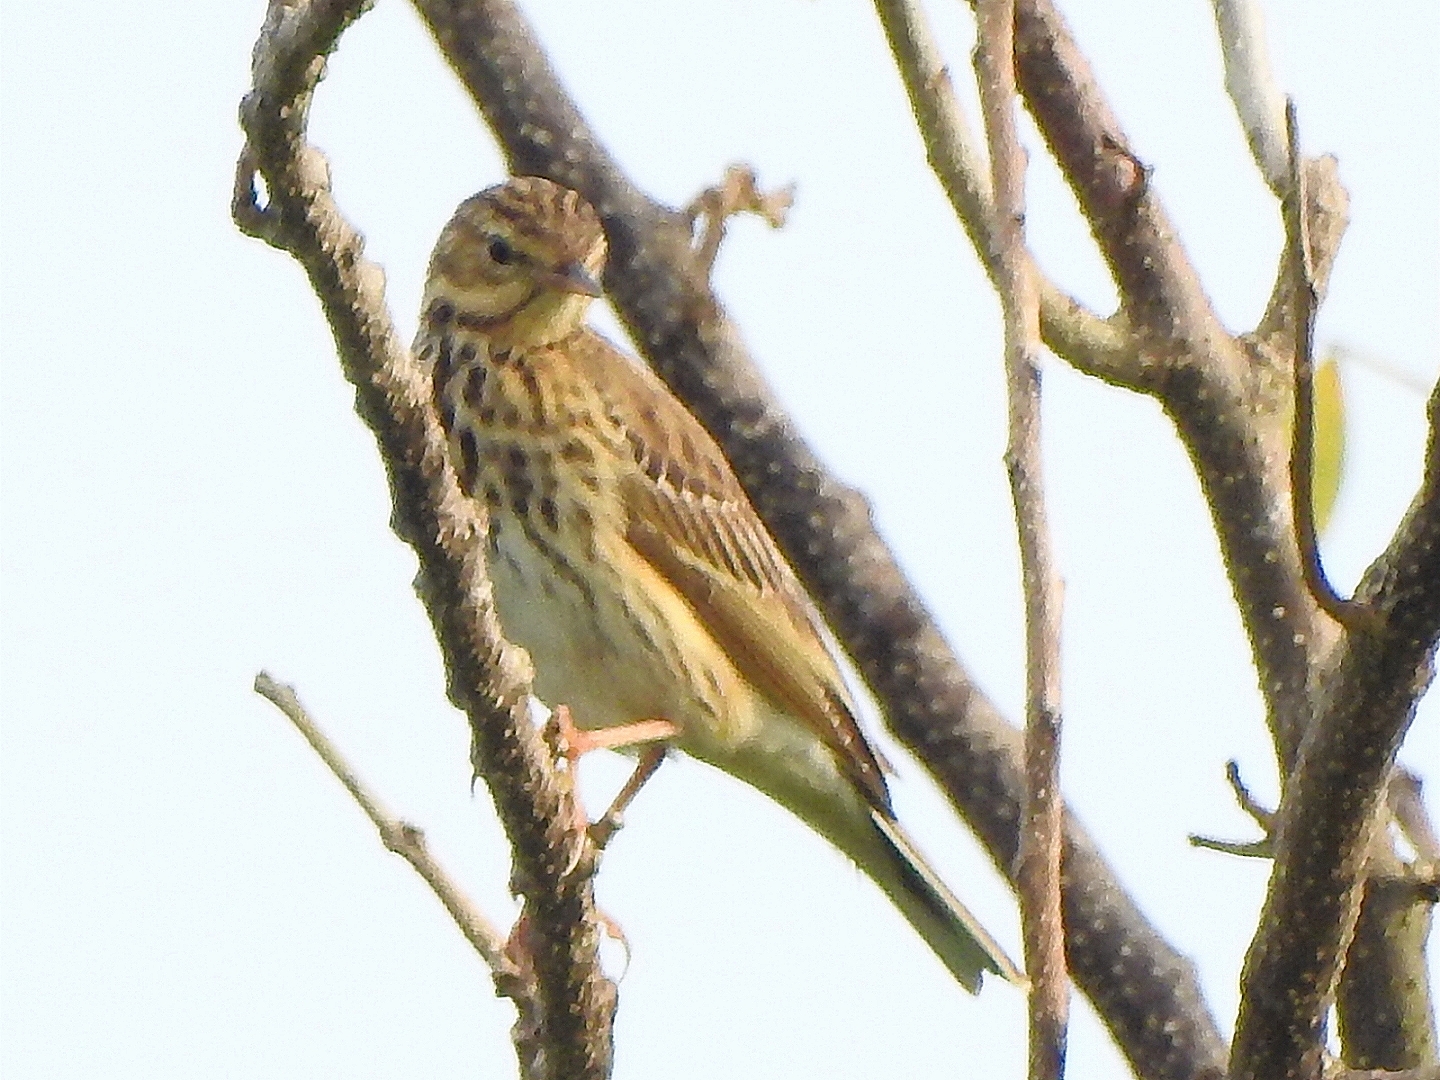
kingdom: Animalia
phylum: Chordata
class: Aves
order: Passeriformes
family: Motacillidae
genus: Anthus
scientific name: Anthus trivialis
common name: Tree pipit
